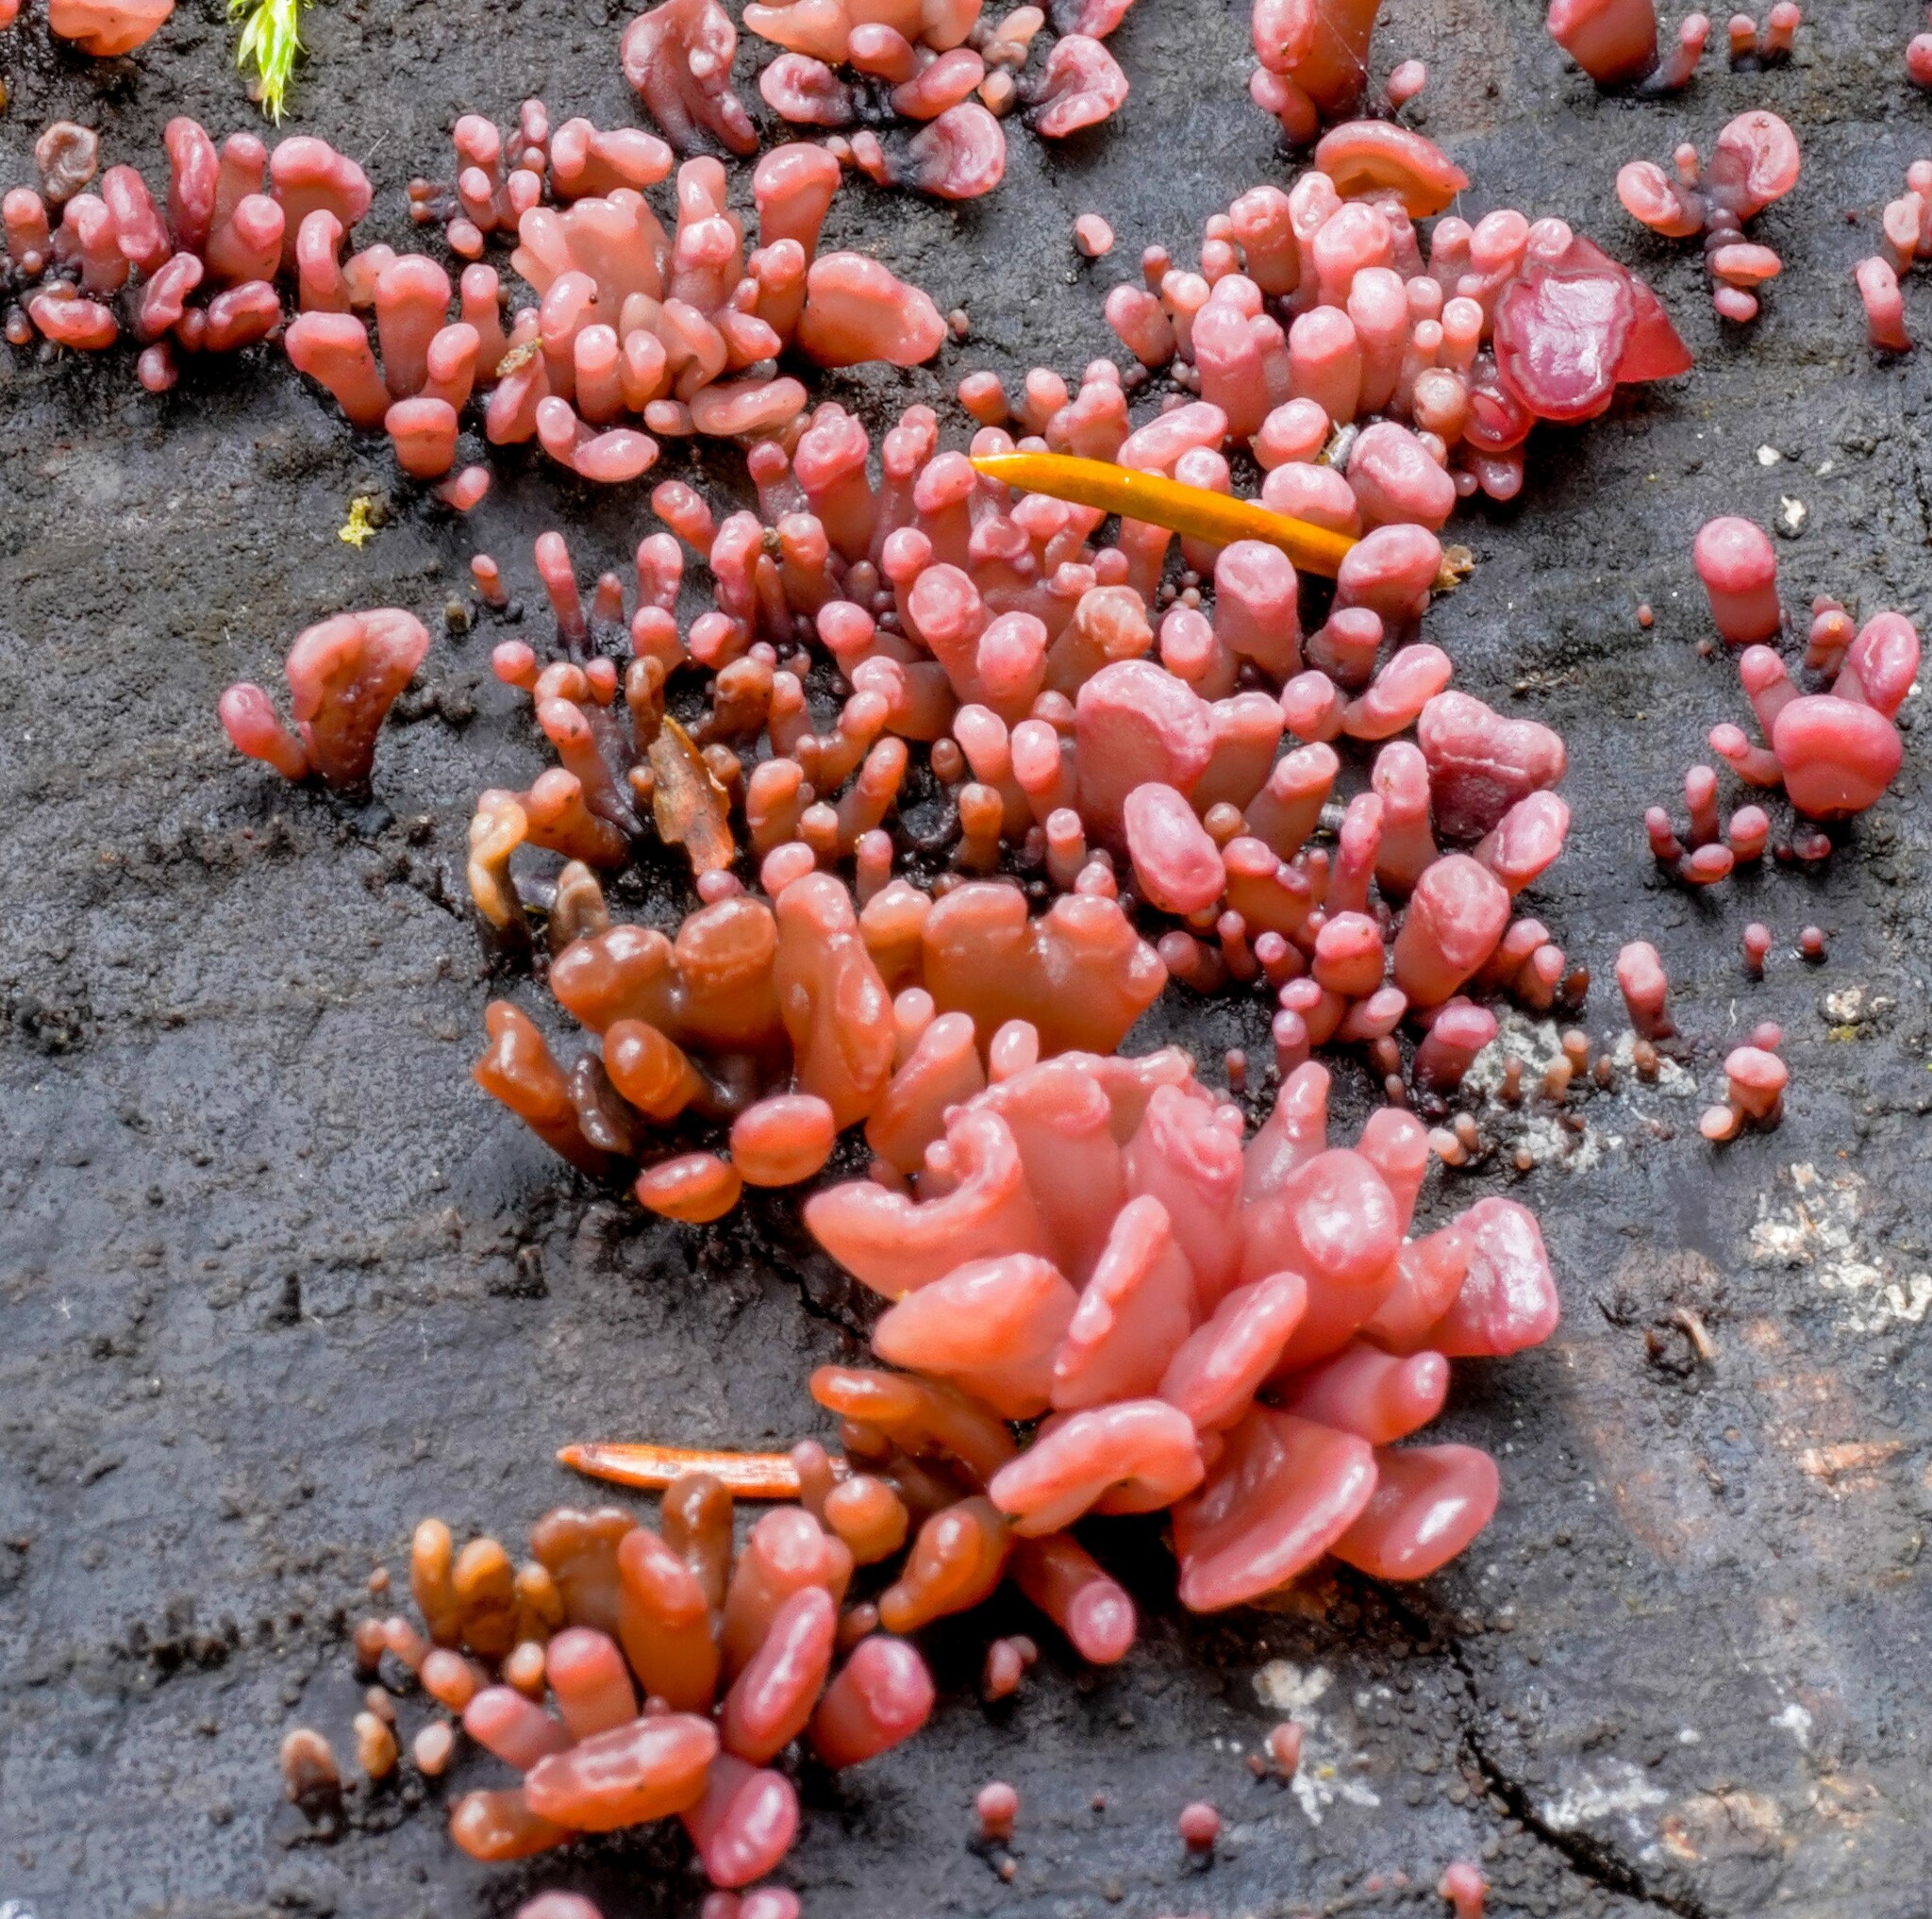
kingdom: Fungi
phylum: Ascomycota
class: Leotiomycetes
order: Helotiales
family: Gelatinodiscaceae
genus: Ascocoryne
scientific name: Ascocoryne sarcoides
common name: Purple jellydisc
